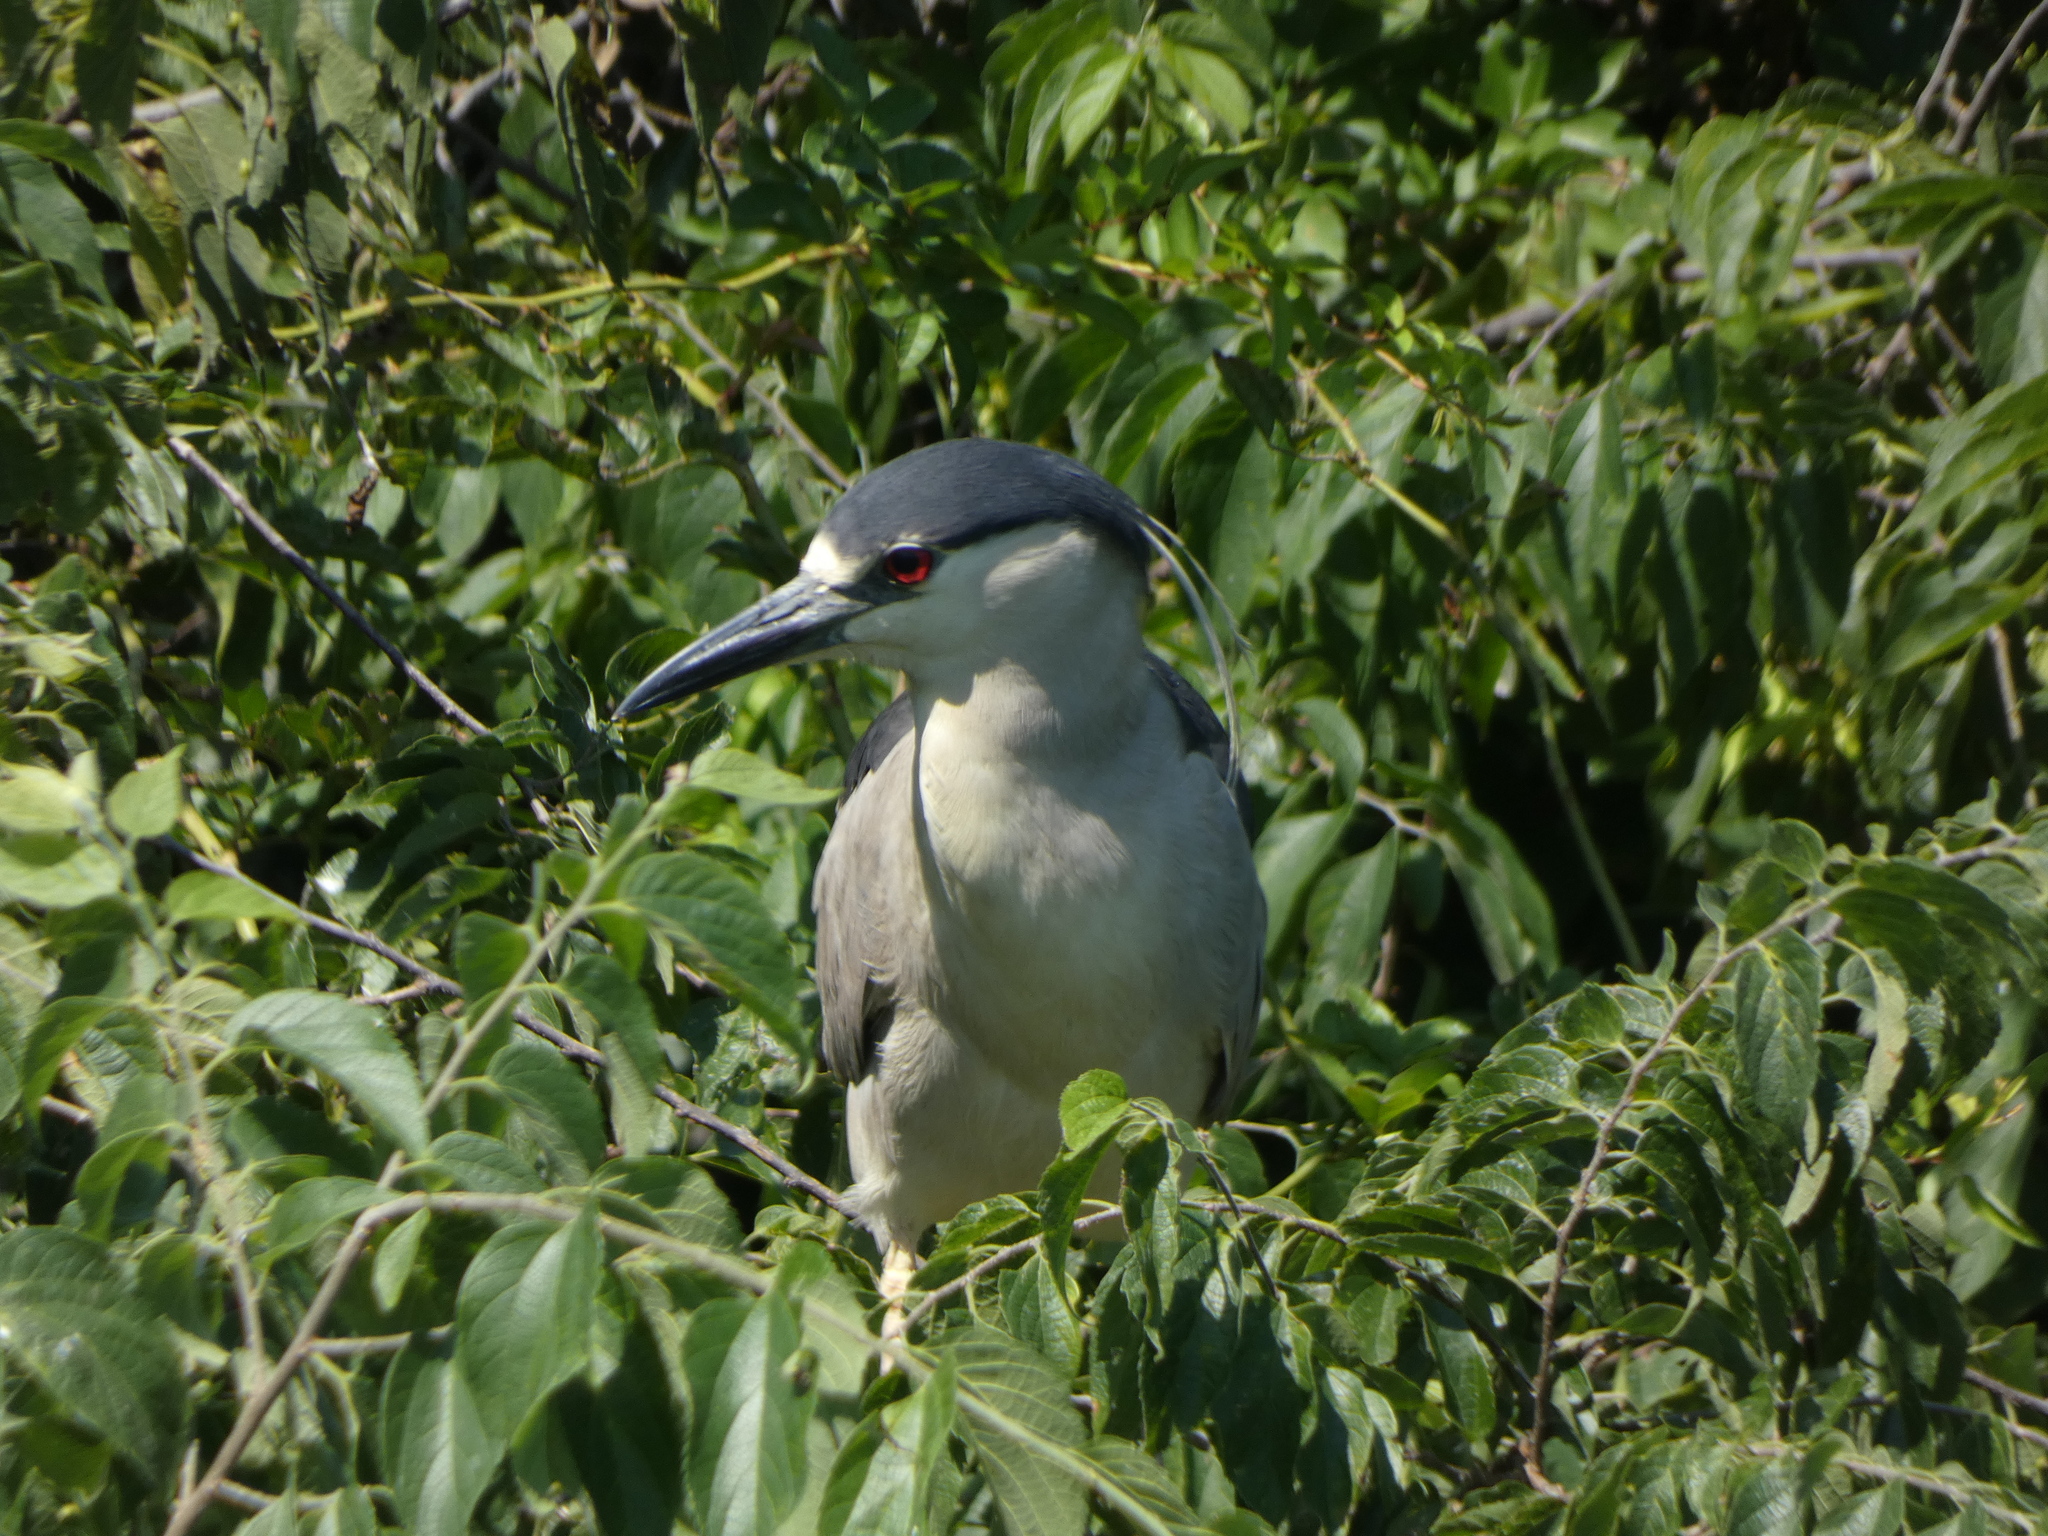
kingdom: Animalia
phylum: Chordata
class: Aves
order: Pelecaniformes
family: Ardeidae
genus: Nycticorax
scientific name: Nycticorax nycticorax
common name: Black-crowned night heron
